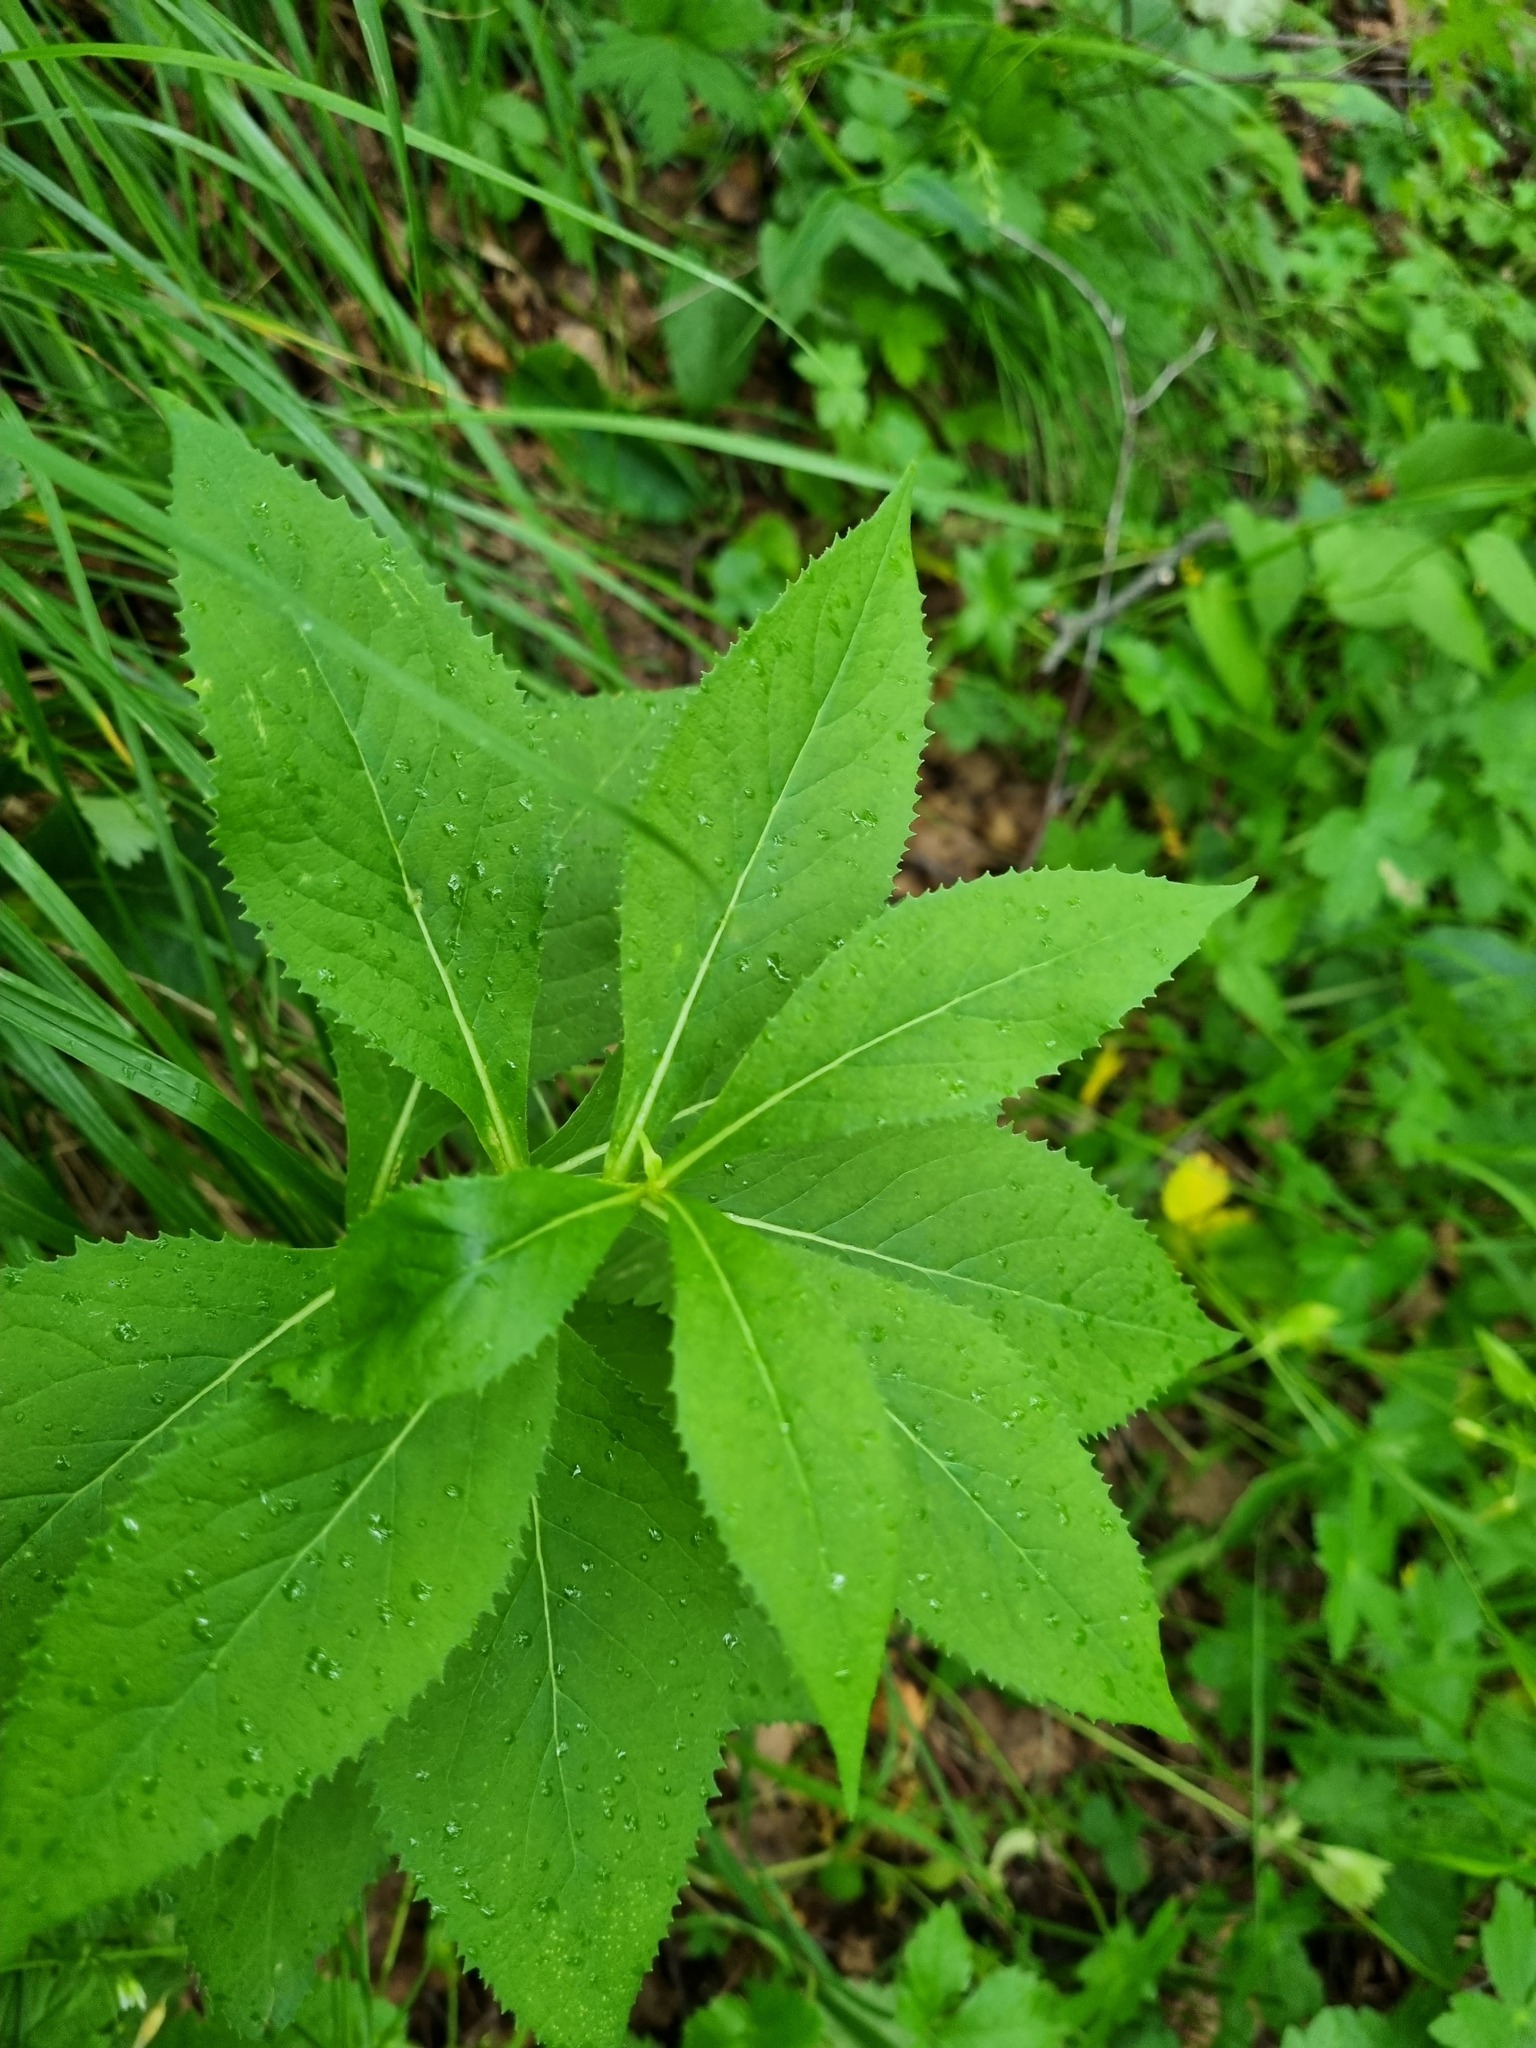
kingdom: Plantae
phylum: Tracheophyta
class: Magnoliopsida
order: Asterales
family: Asteraceae
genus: Senecio
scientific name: Senecio propinquus
